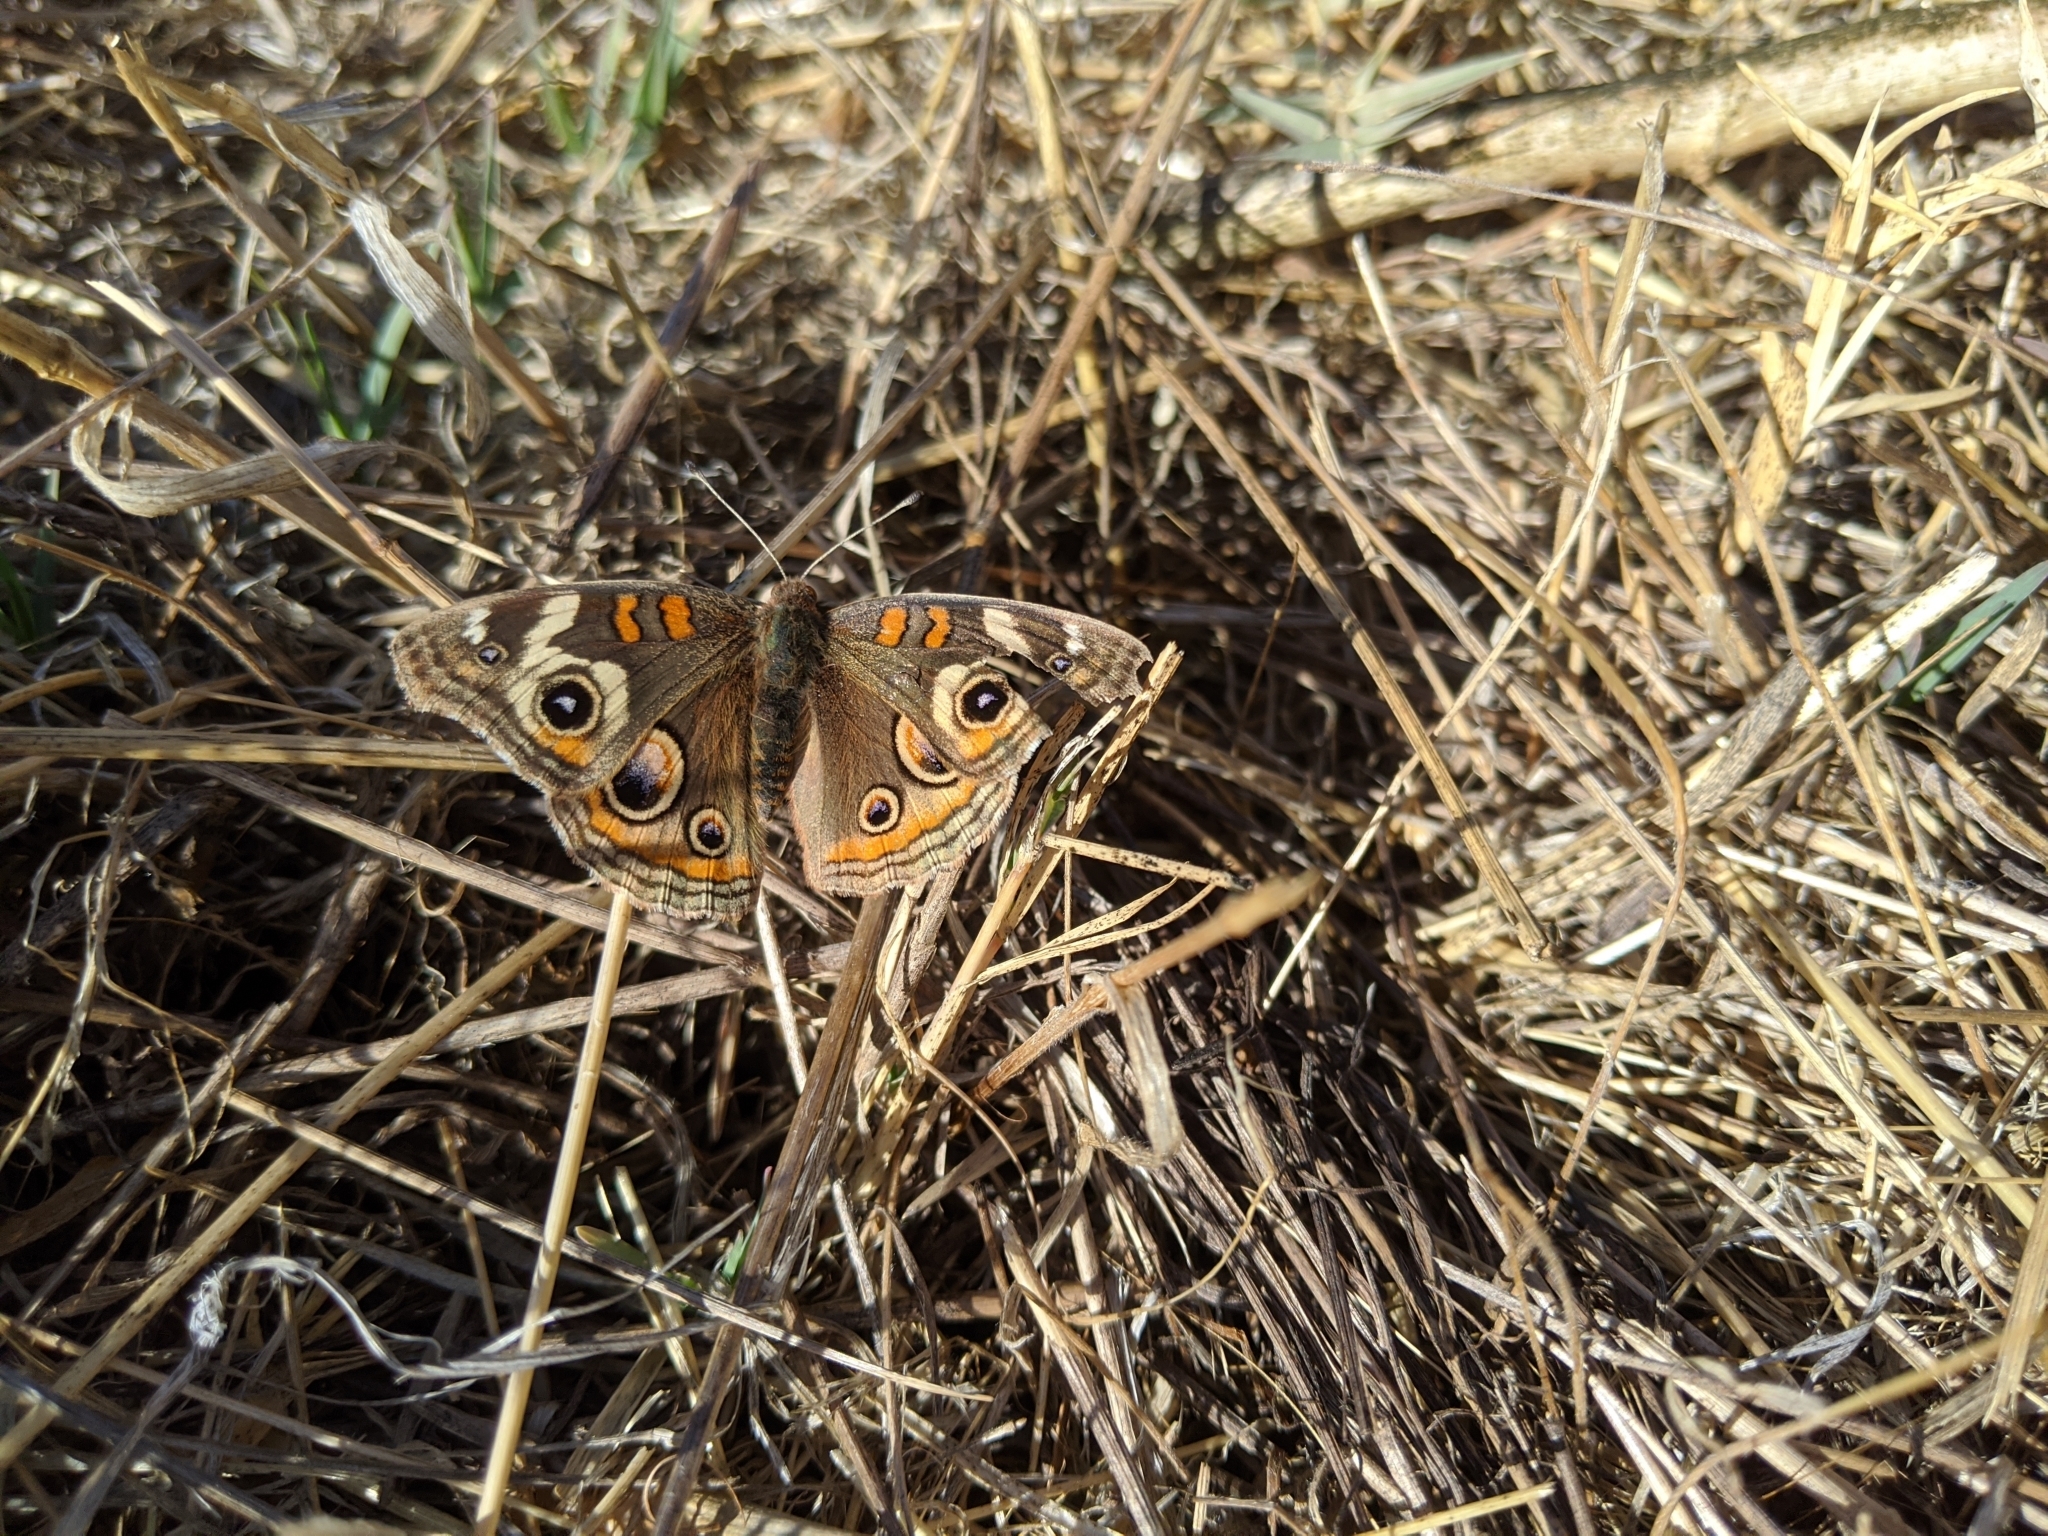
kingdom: Animalia
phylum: Arthropoda
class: Insecta
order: Lepidoptera
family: Nymphalidae
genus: Junonia
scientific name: Junonia grisea
